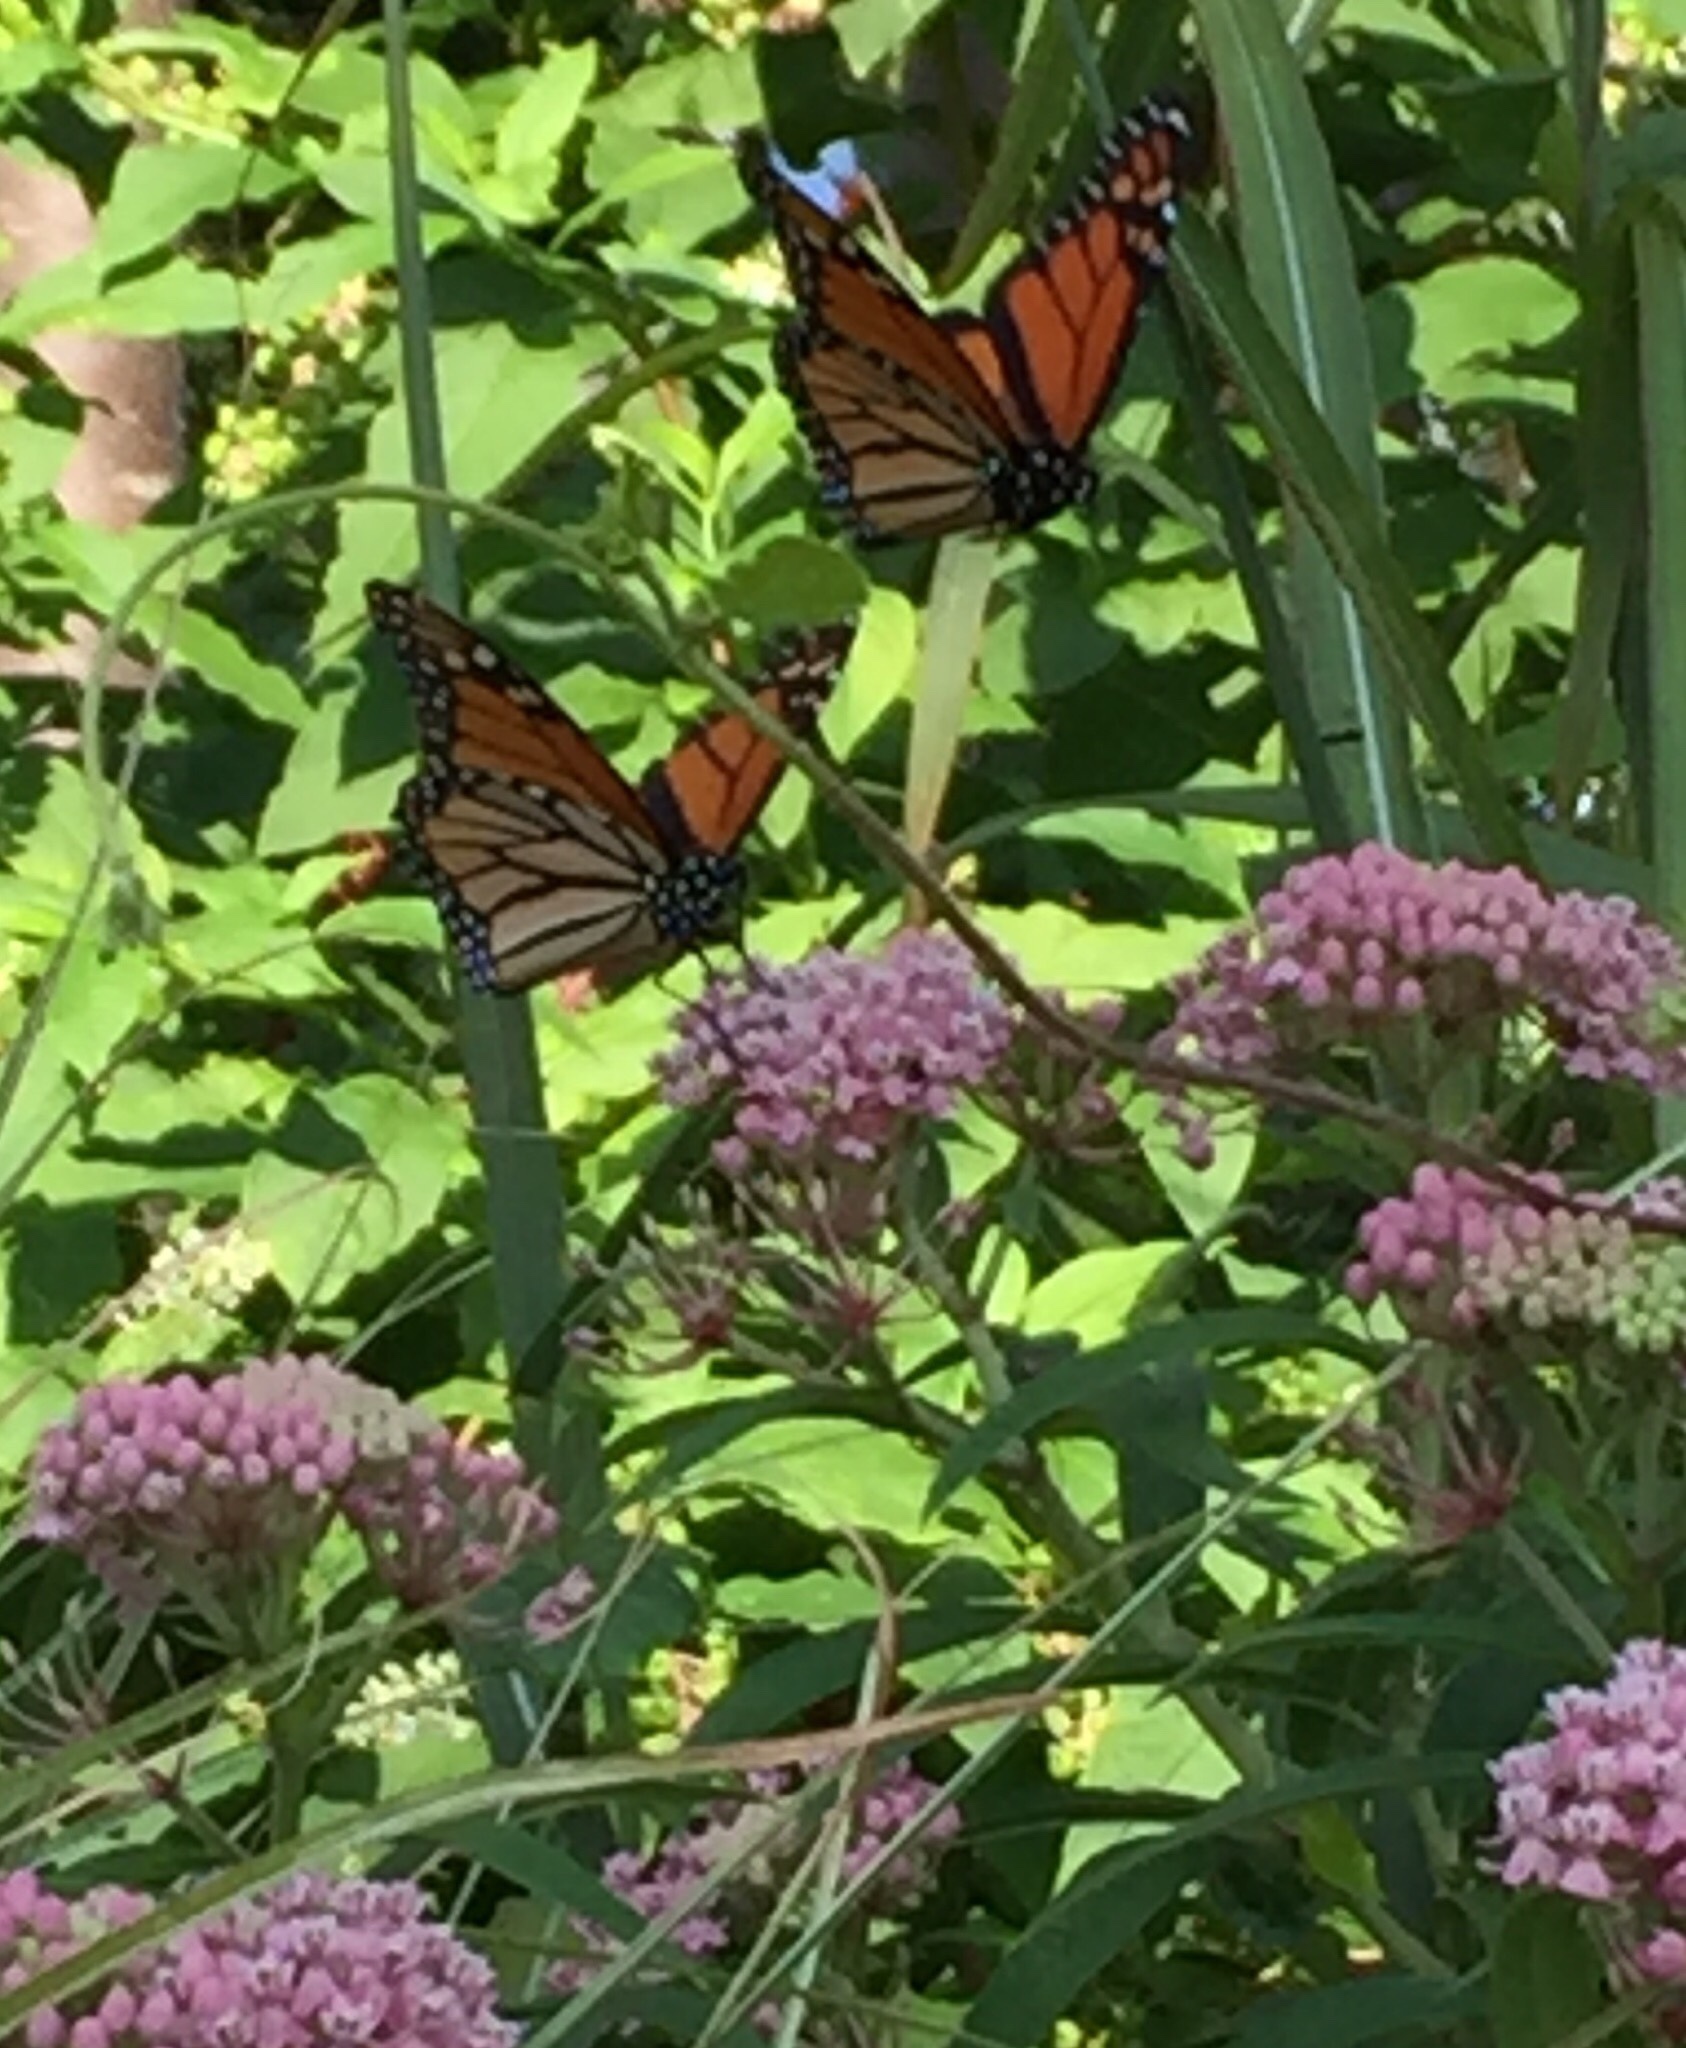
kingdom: Animalia
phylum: Arthropoda
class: Insecta
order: Lepidoptera
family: Nymphalidae
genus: Danaus
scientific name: Danaus plexippus
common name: Monarch
